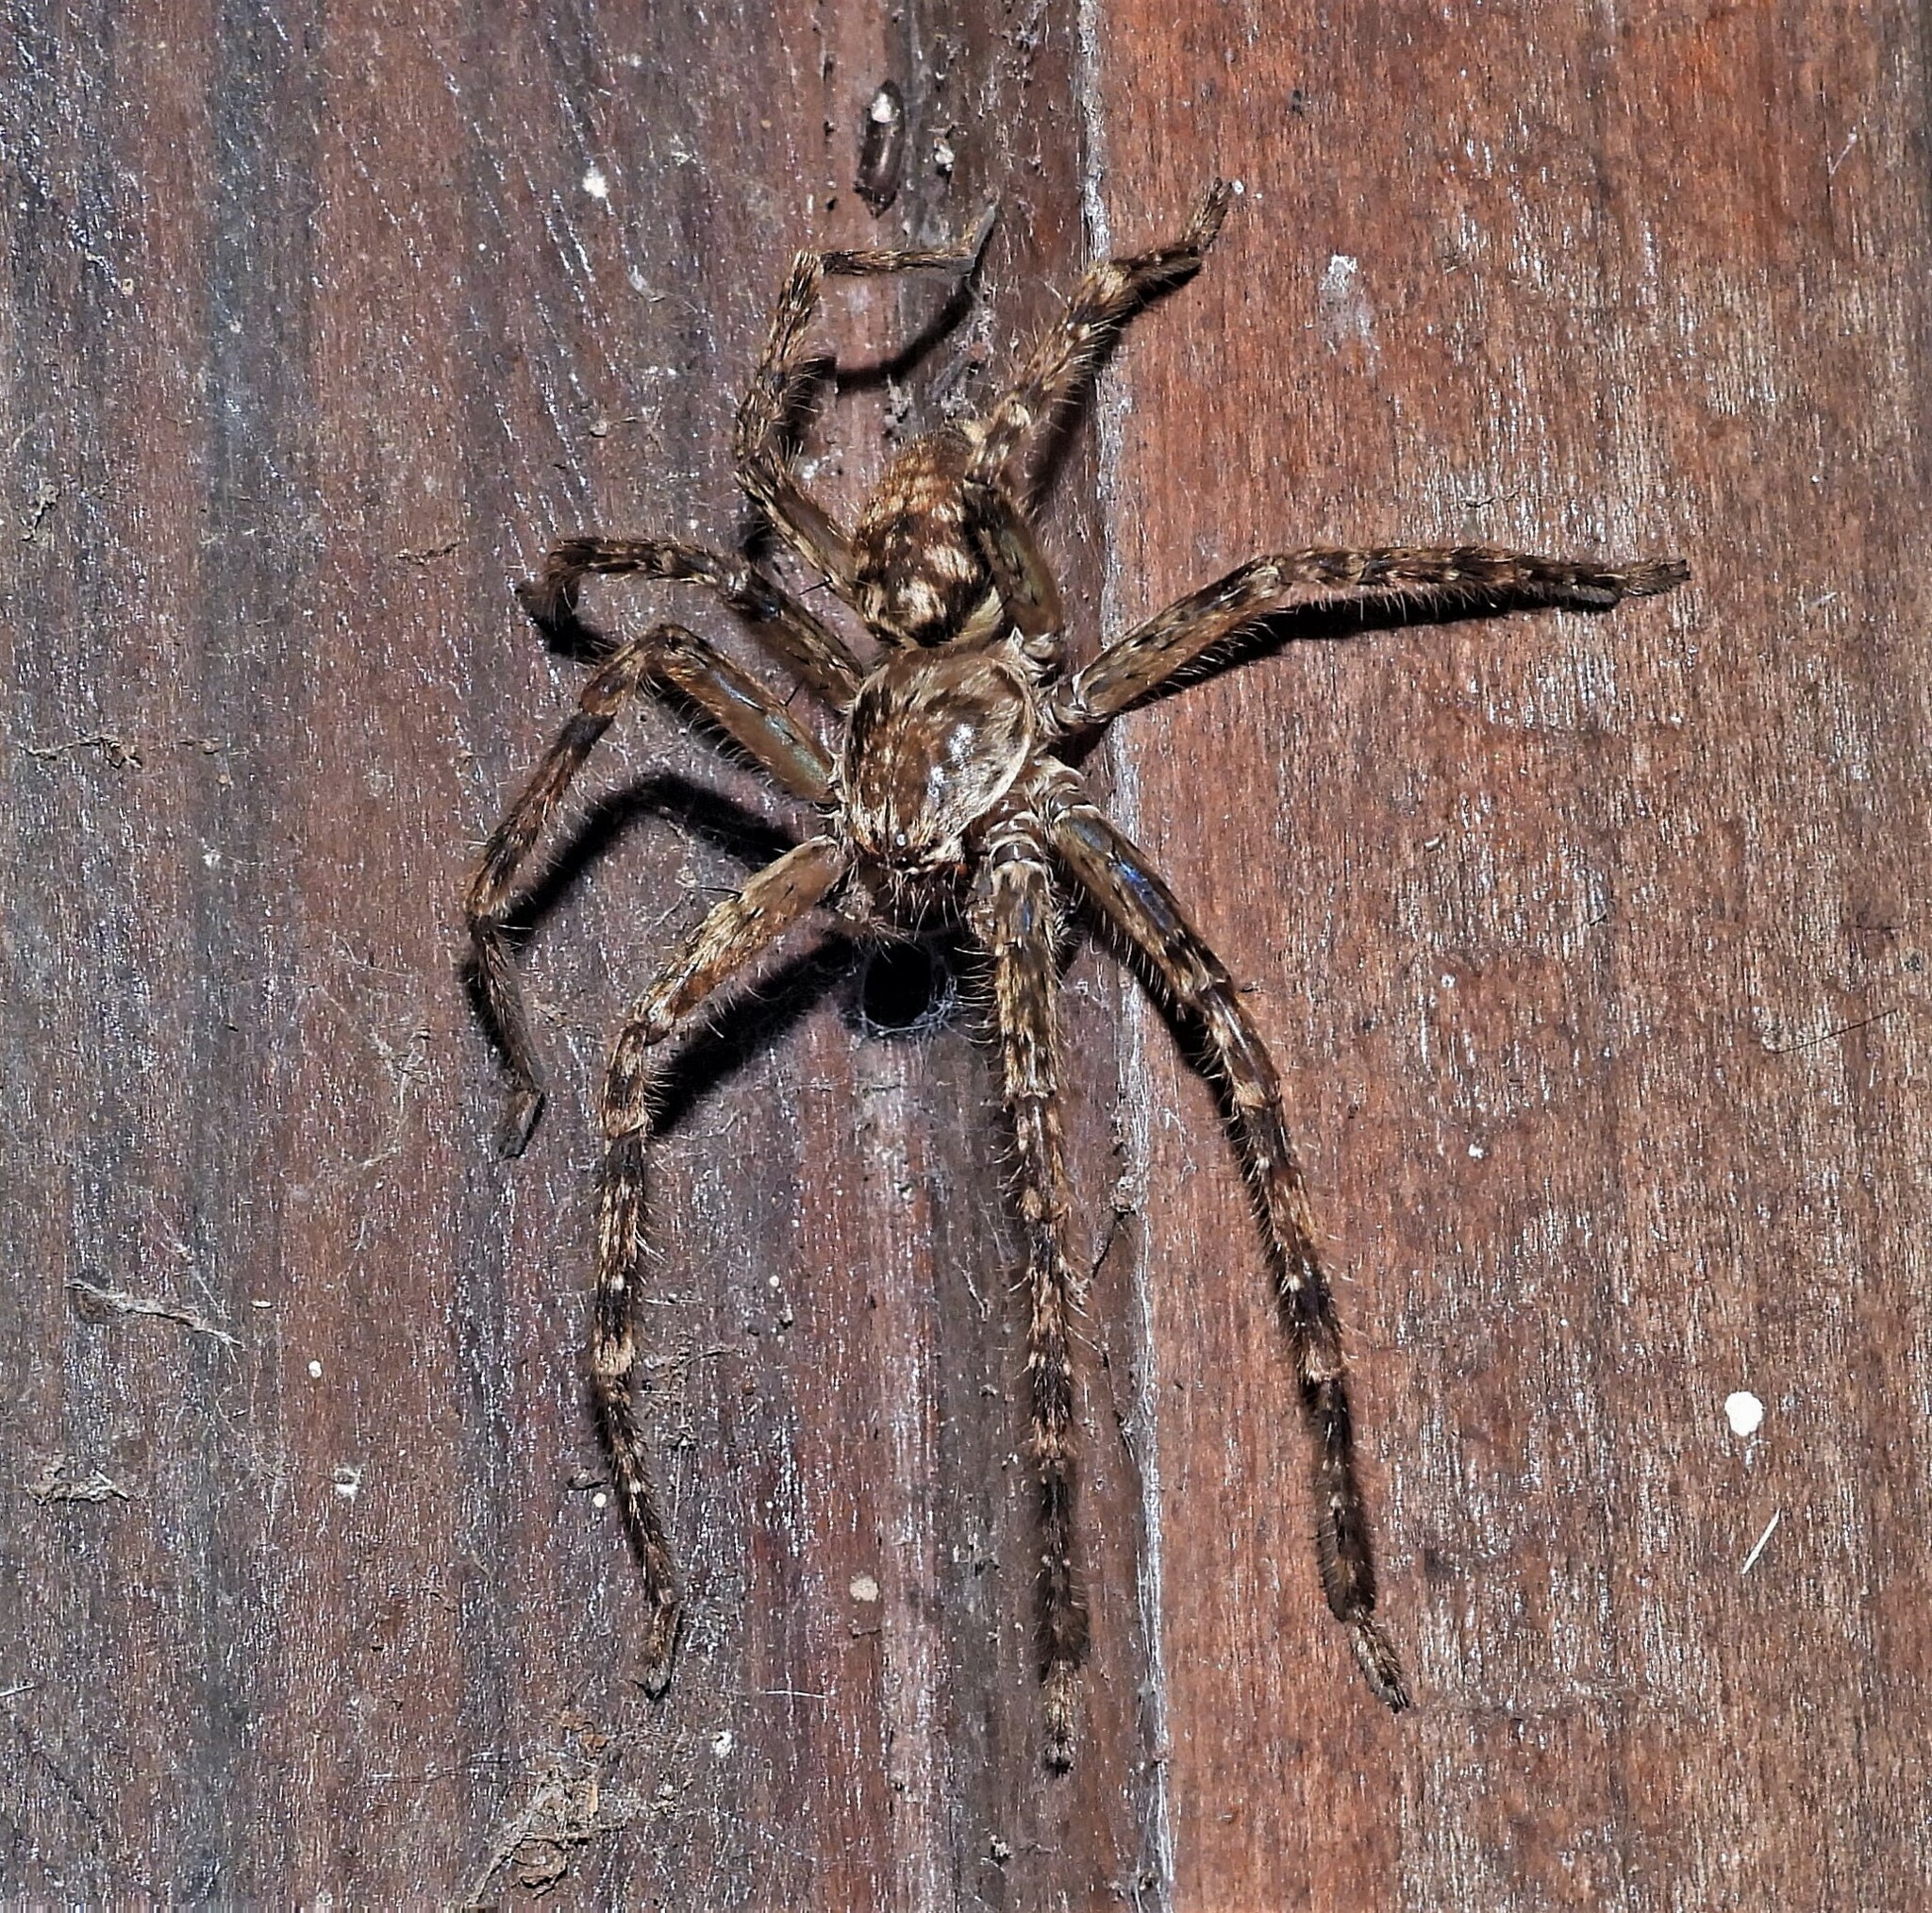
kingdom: Animalia
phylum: Arthropoda
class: Arachnida
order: Araneae
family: Sparassidae
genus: Polybetes
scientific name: Polybetes rapidus
